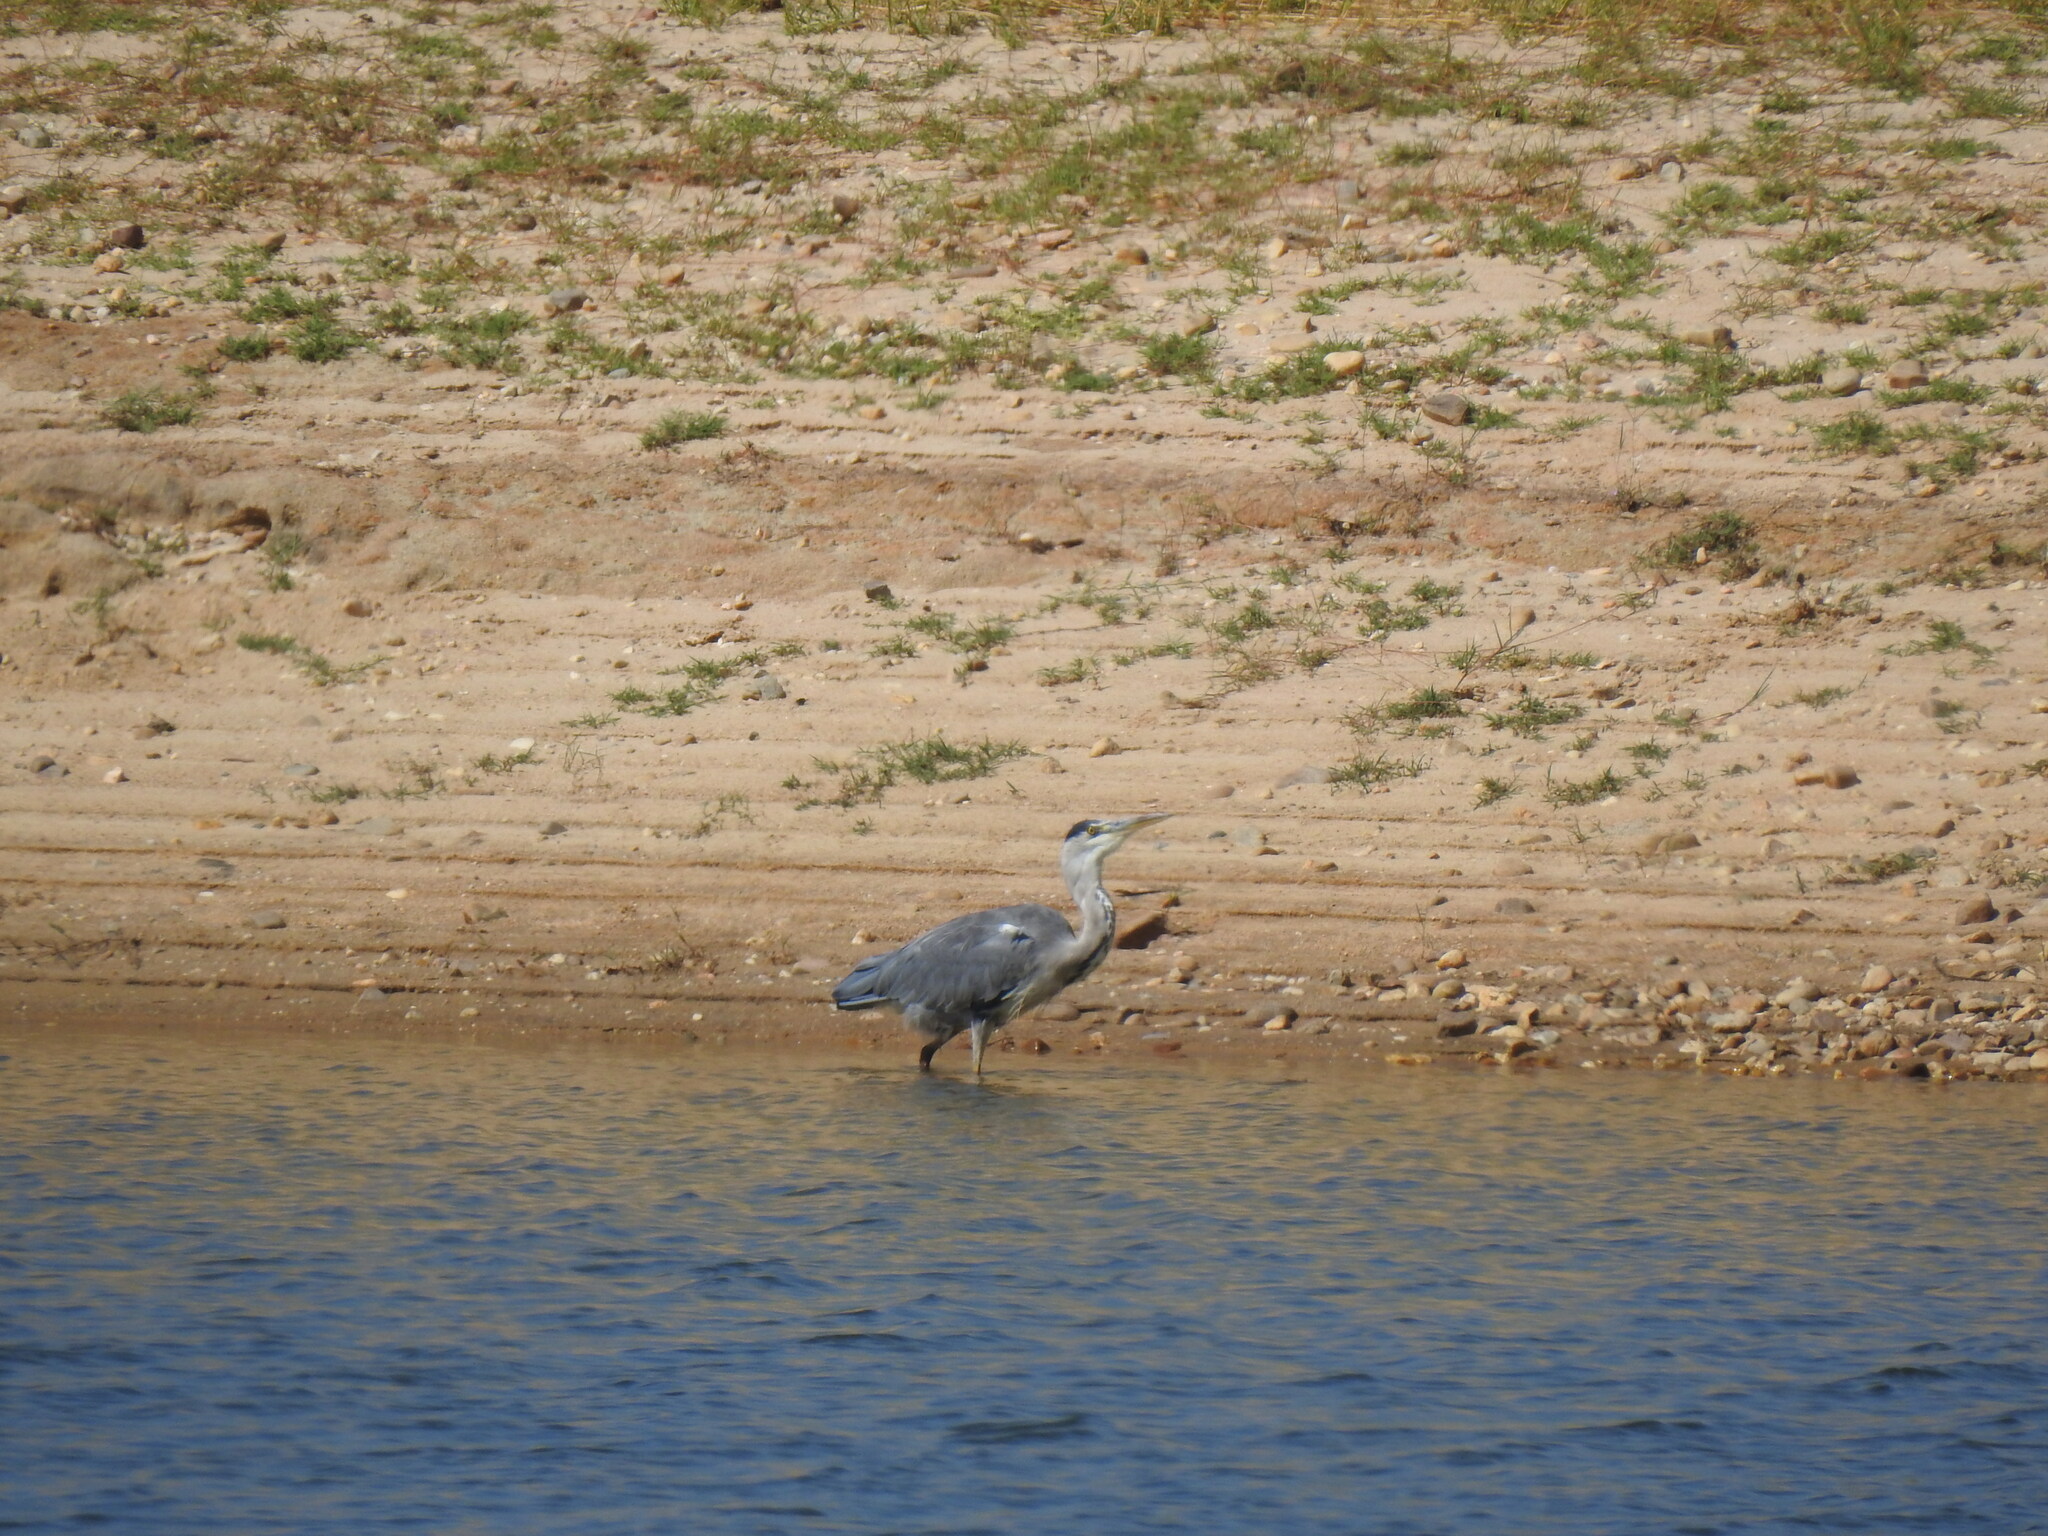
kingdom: Animalia
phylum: Chordata
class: Aves
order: Pelecaniformes
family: Ardeidae
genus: Ardea
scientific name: Ardea cinerea
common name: Grey heron
